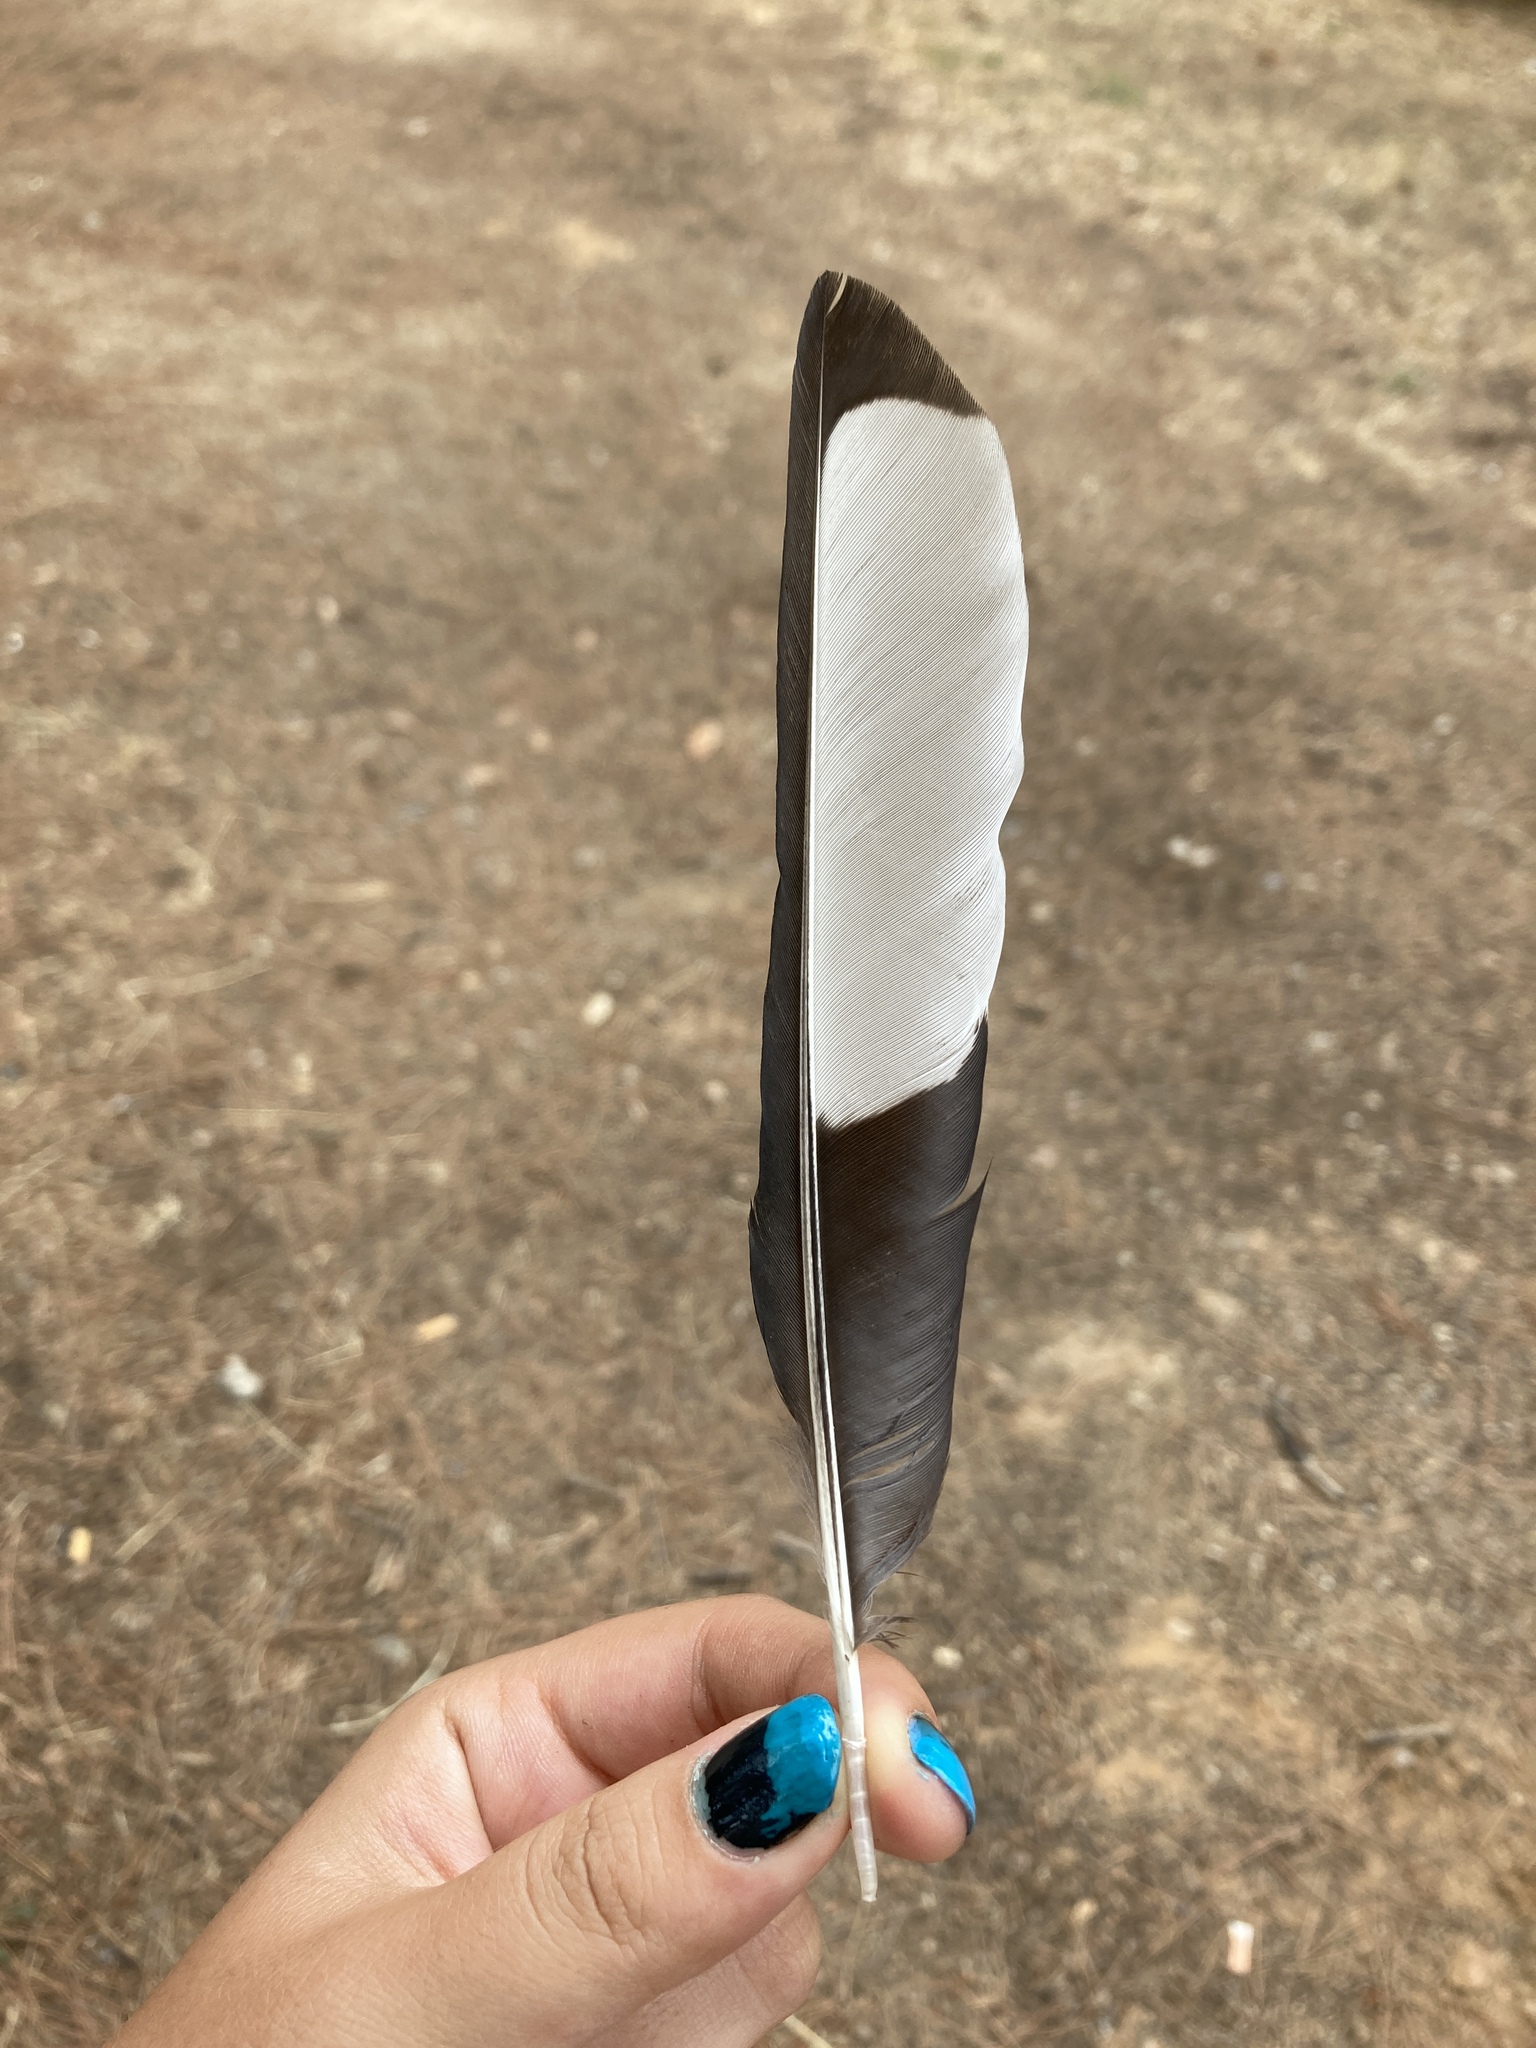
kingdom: Animalia
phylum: Chordata
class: Aves
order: Passeriformes
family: Corvidae
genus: Pica
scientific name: Pica pica
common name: Eurasian magpie
